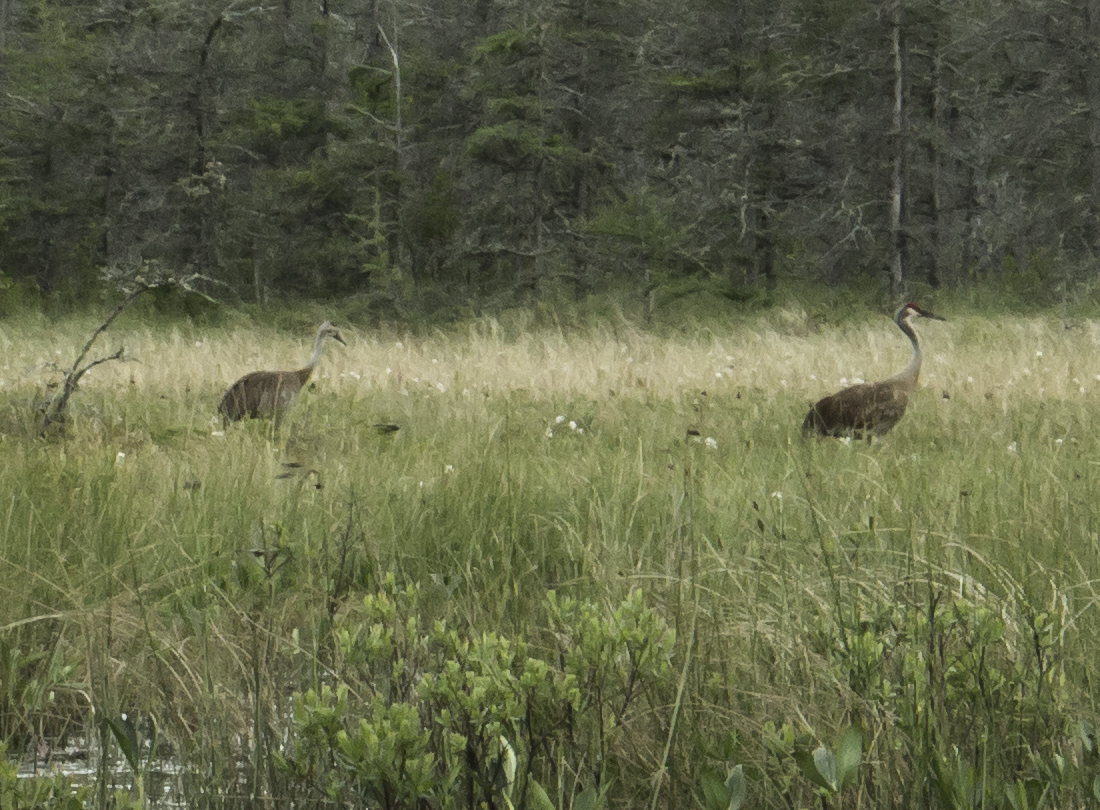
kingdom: Animalia
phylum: Chordata
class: Aves
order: Gruiformes
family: Gruidae
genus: Grus
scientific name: Grus canadensis
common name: Sandhill crane
